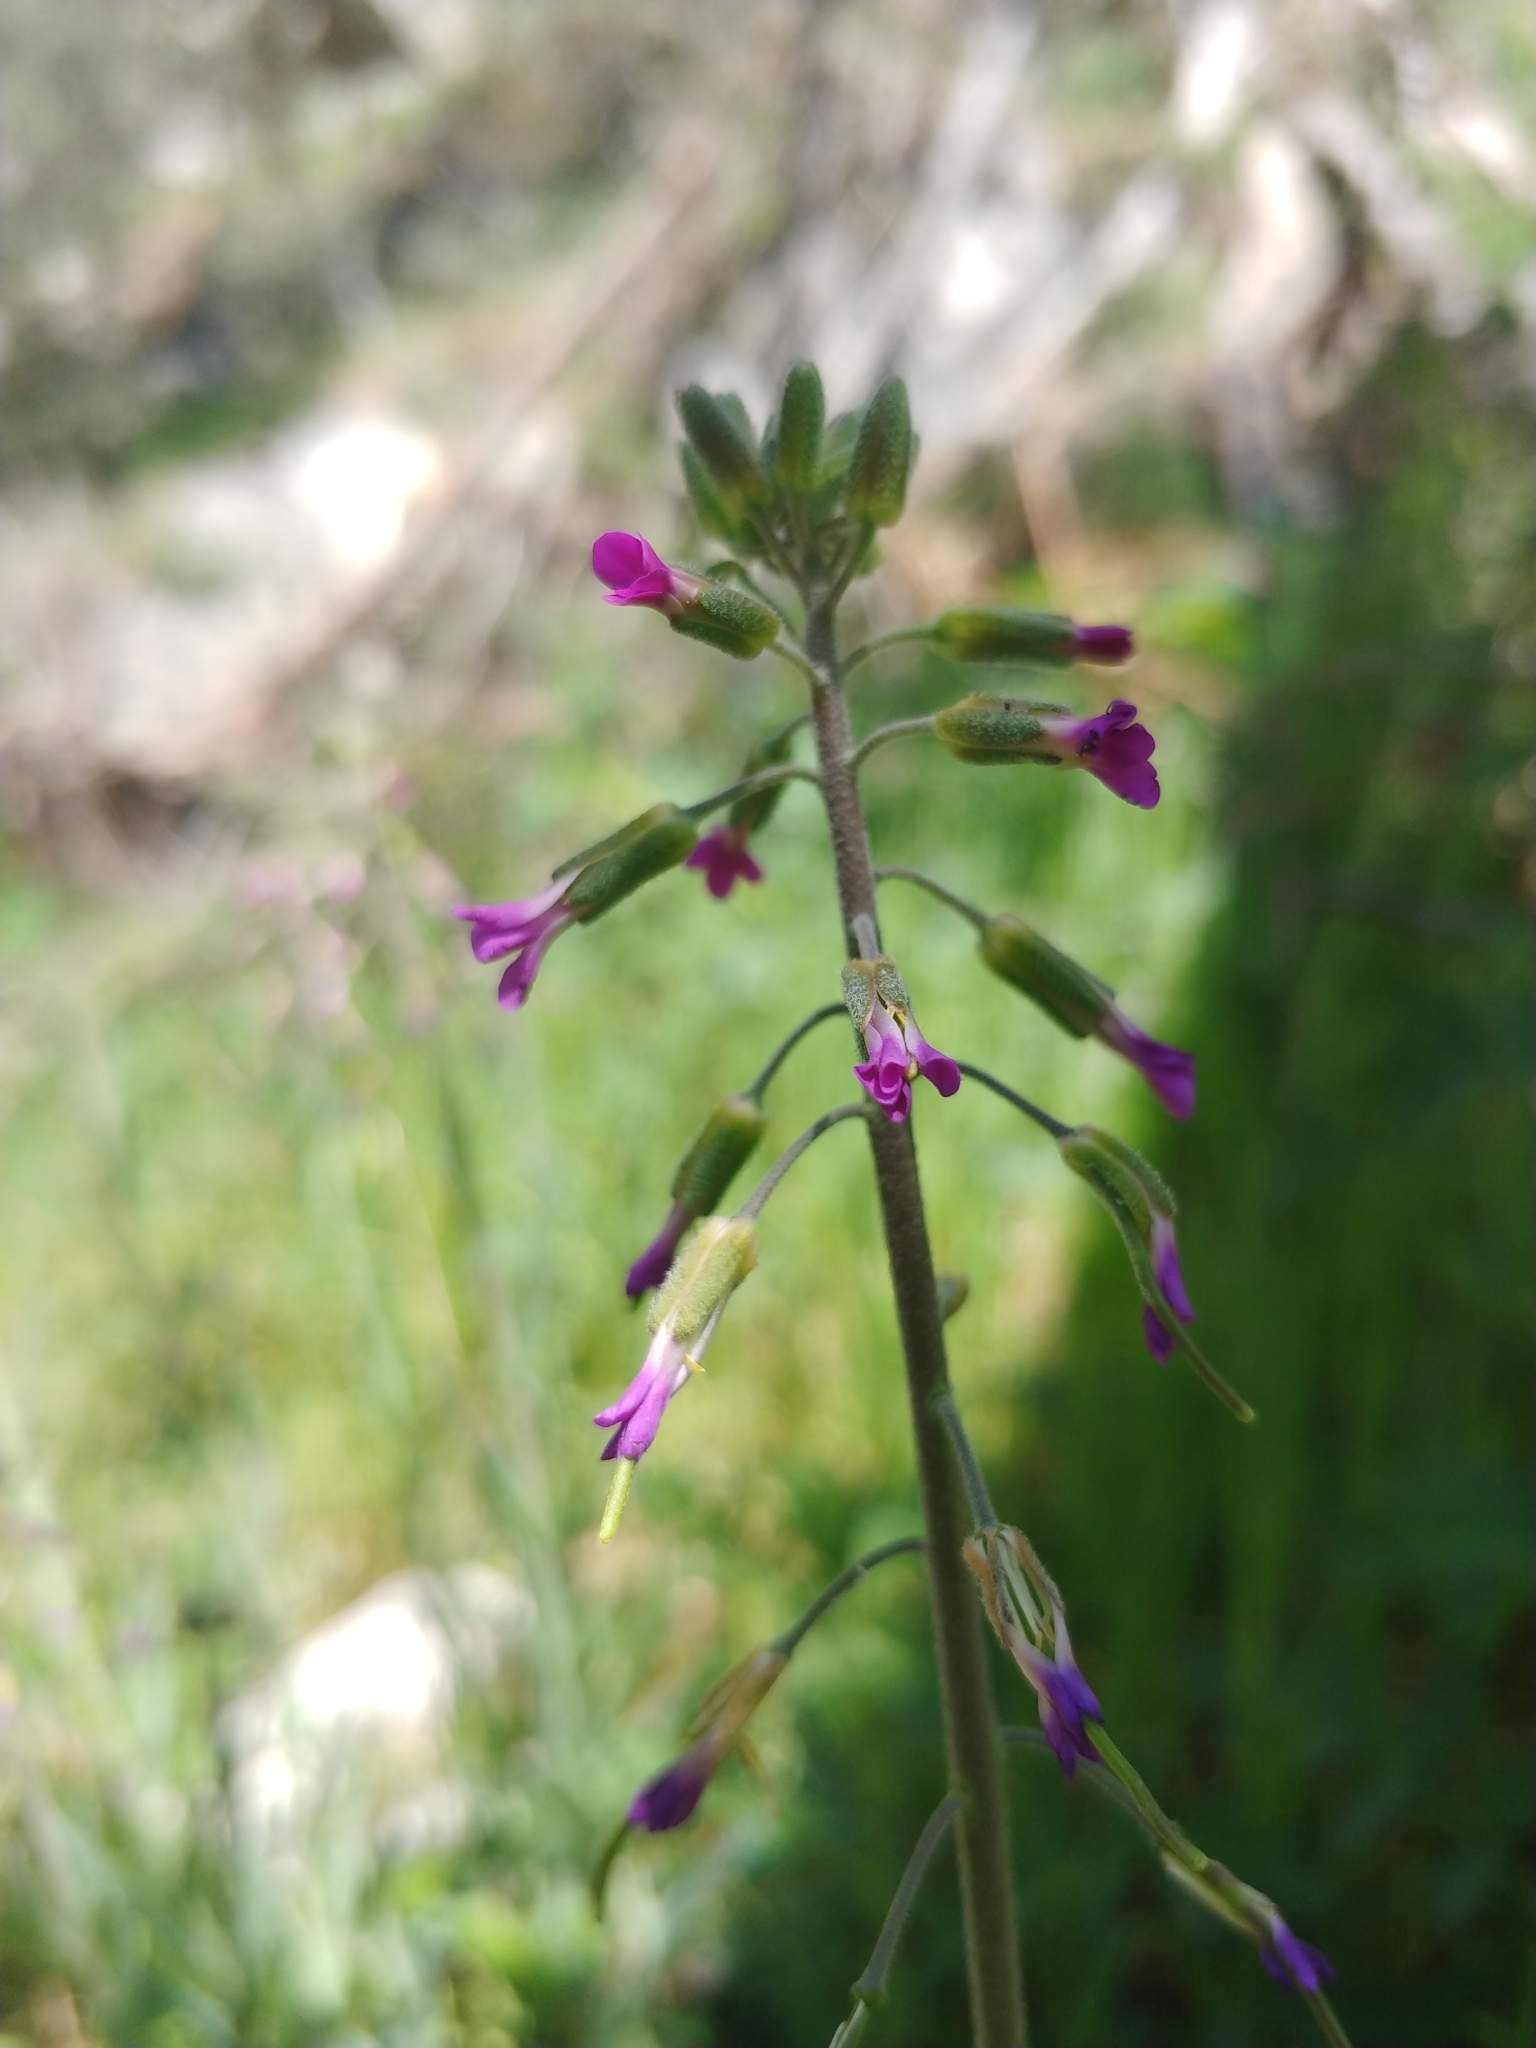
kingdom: Plantae
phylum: Tracheophyta
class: Magnoliopsida
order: Brassicales
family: Brassicaceae
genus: Boechera
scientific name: Boechera californica
